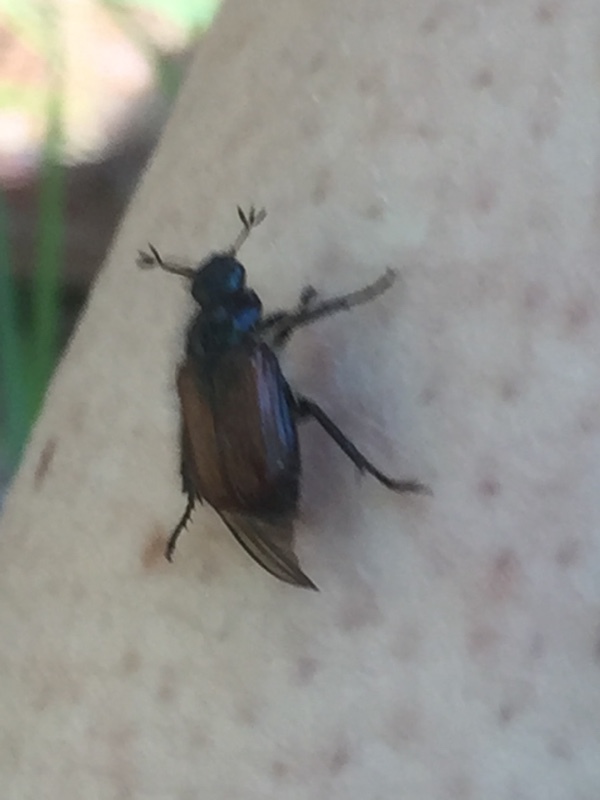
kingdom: Animalia
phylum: Arthropoda
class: Insecta
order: Coleoptera
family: Scarabaeidae
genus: Phyllopertha
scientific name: Phyllopertha horticola
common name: Garden chafer
